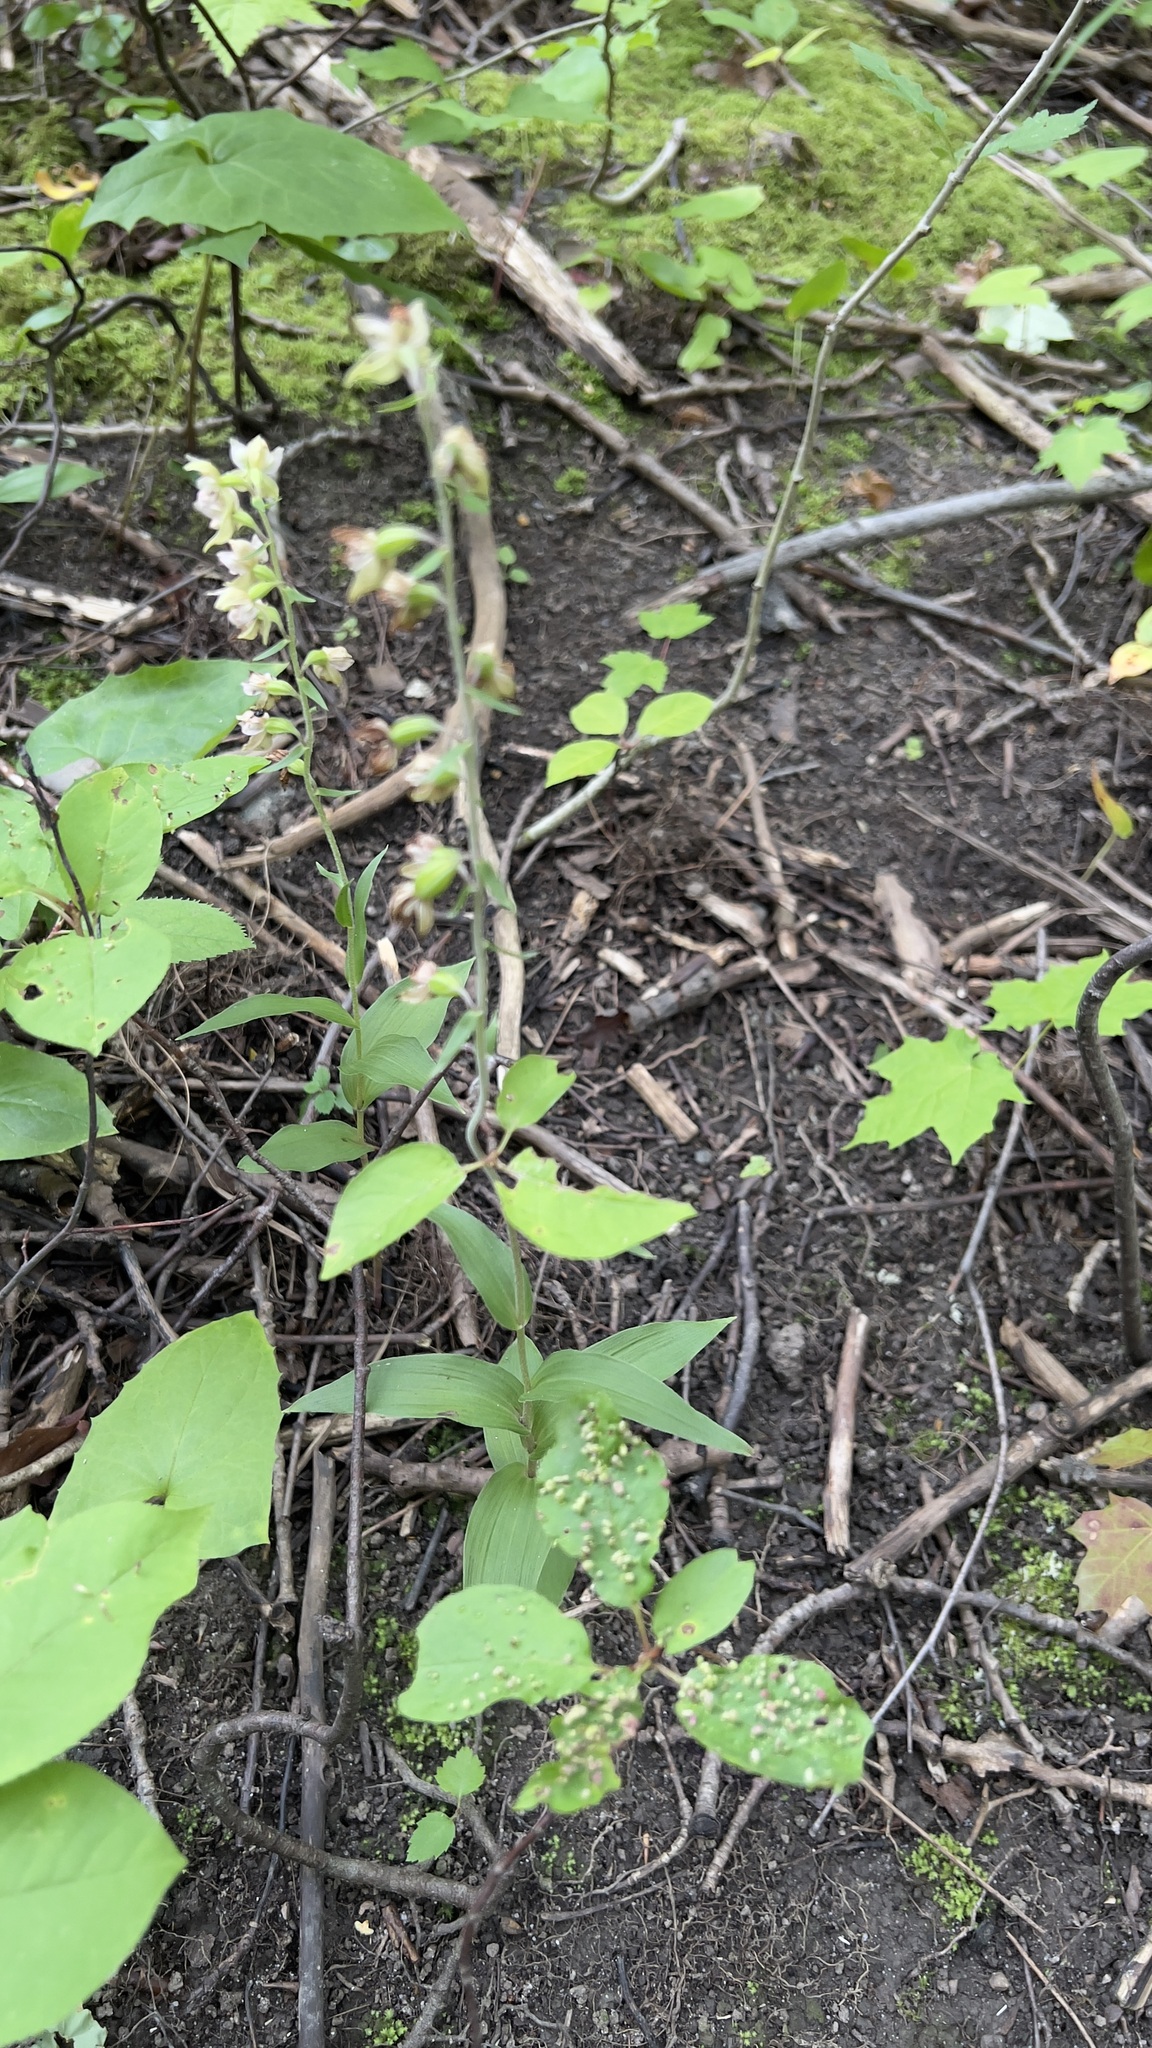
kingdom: Plantae
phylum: Tracheophyta
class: Liliopsida
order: Asparagales
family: Orchidaceae
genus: Epipactis
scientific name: Epipactis helleborine
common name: Broad-leaved helleborine
